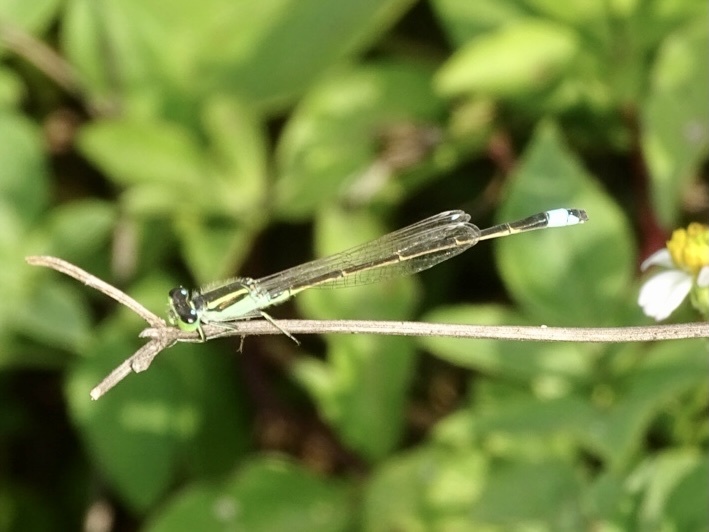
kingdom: Animalia
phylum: Arthropoda
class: Insecta
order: Odonata
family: Coenagrionidae
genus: Ischnura
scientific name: Ischnura senegalensis
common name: Tropical bluetail
